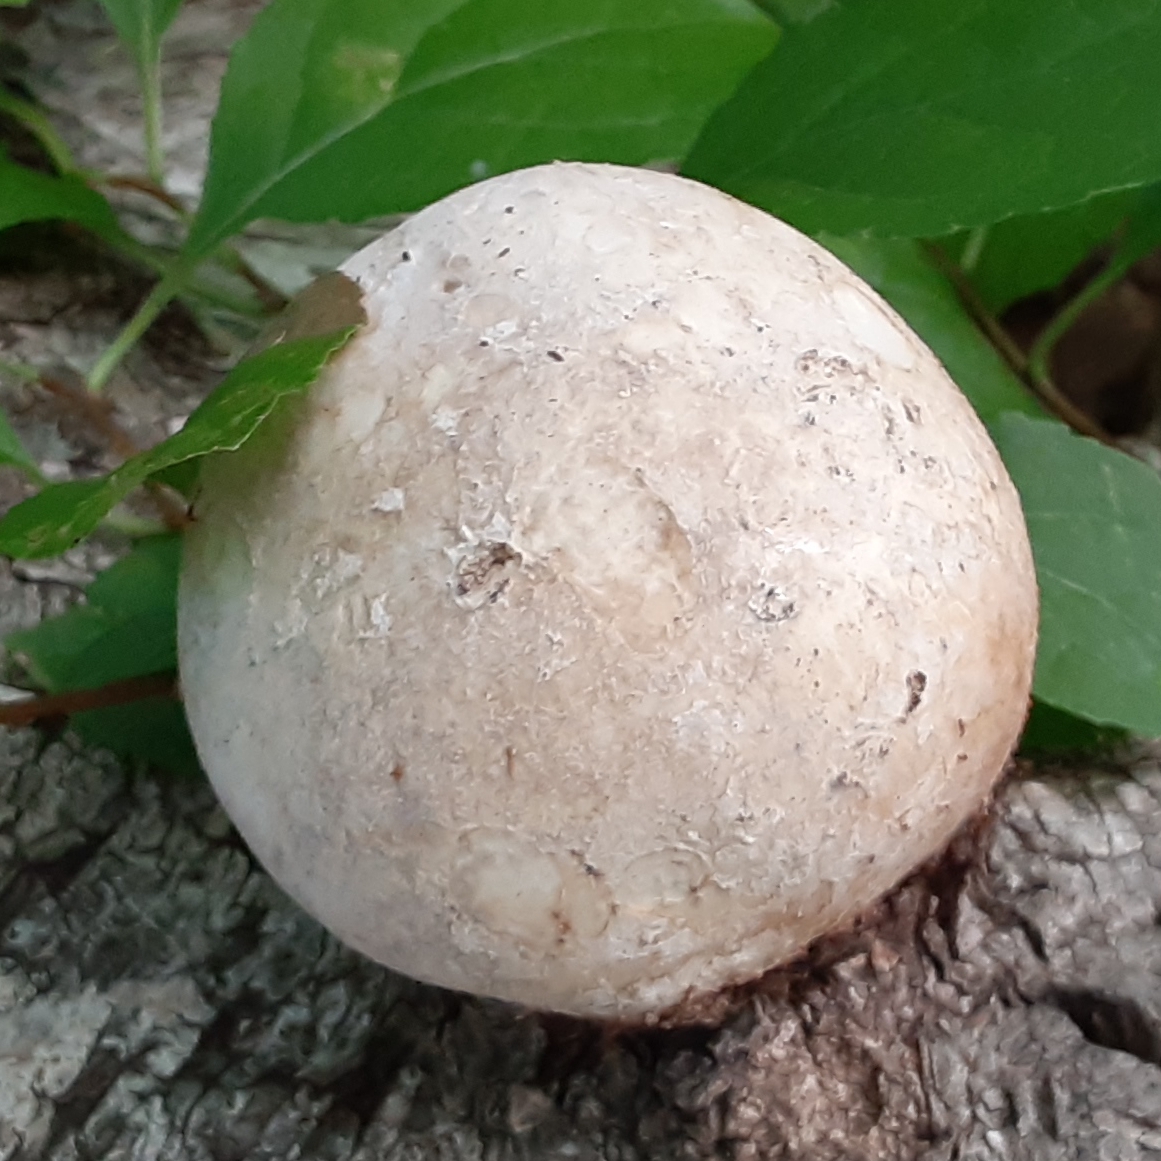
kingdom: Fungi
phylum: Basidiomycota
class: Agaricomycetes
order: Polyporales
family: Fomitopsidaceae
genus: Fomitopsis
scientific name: Fomitopsis betulina
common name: Birch polypore
